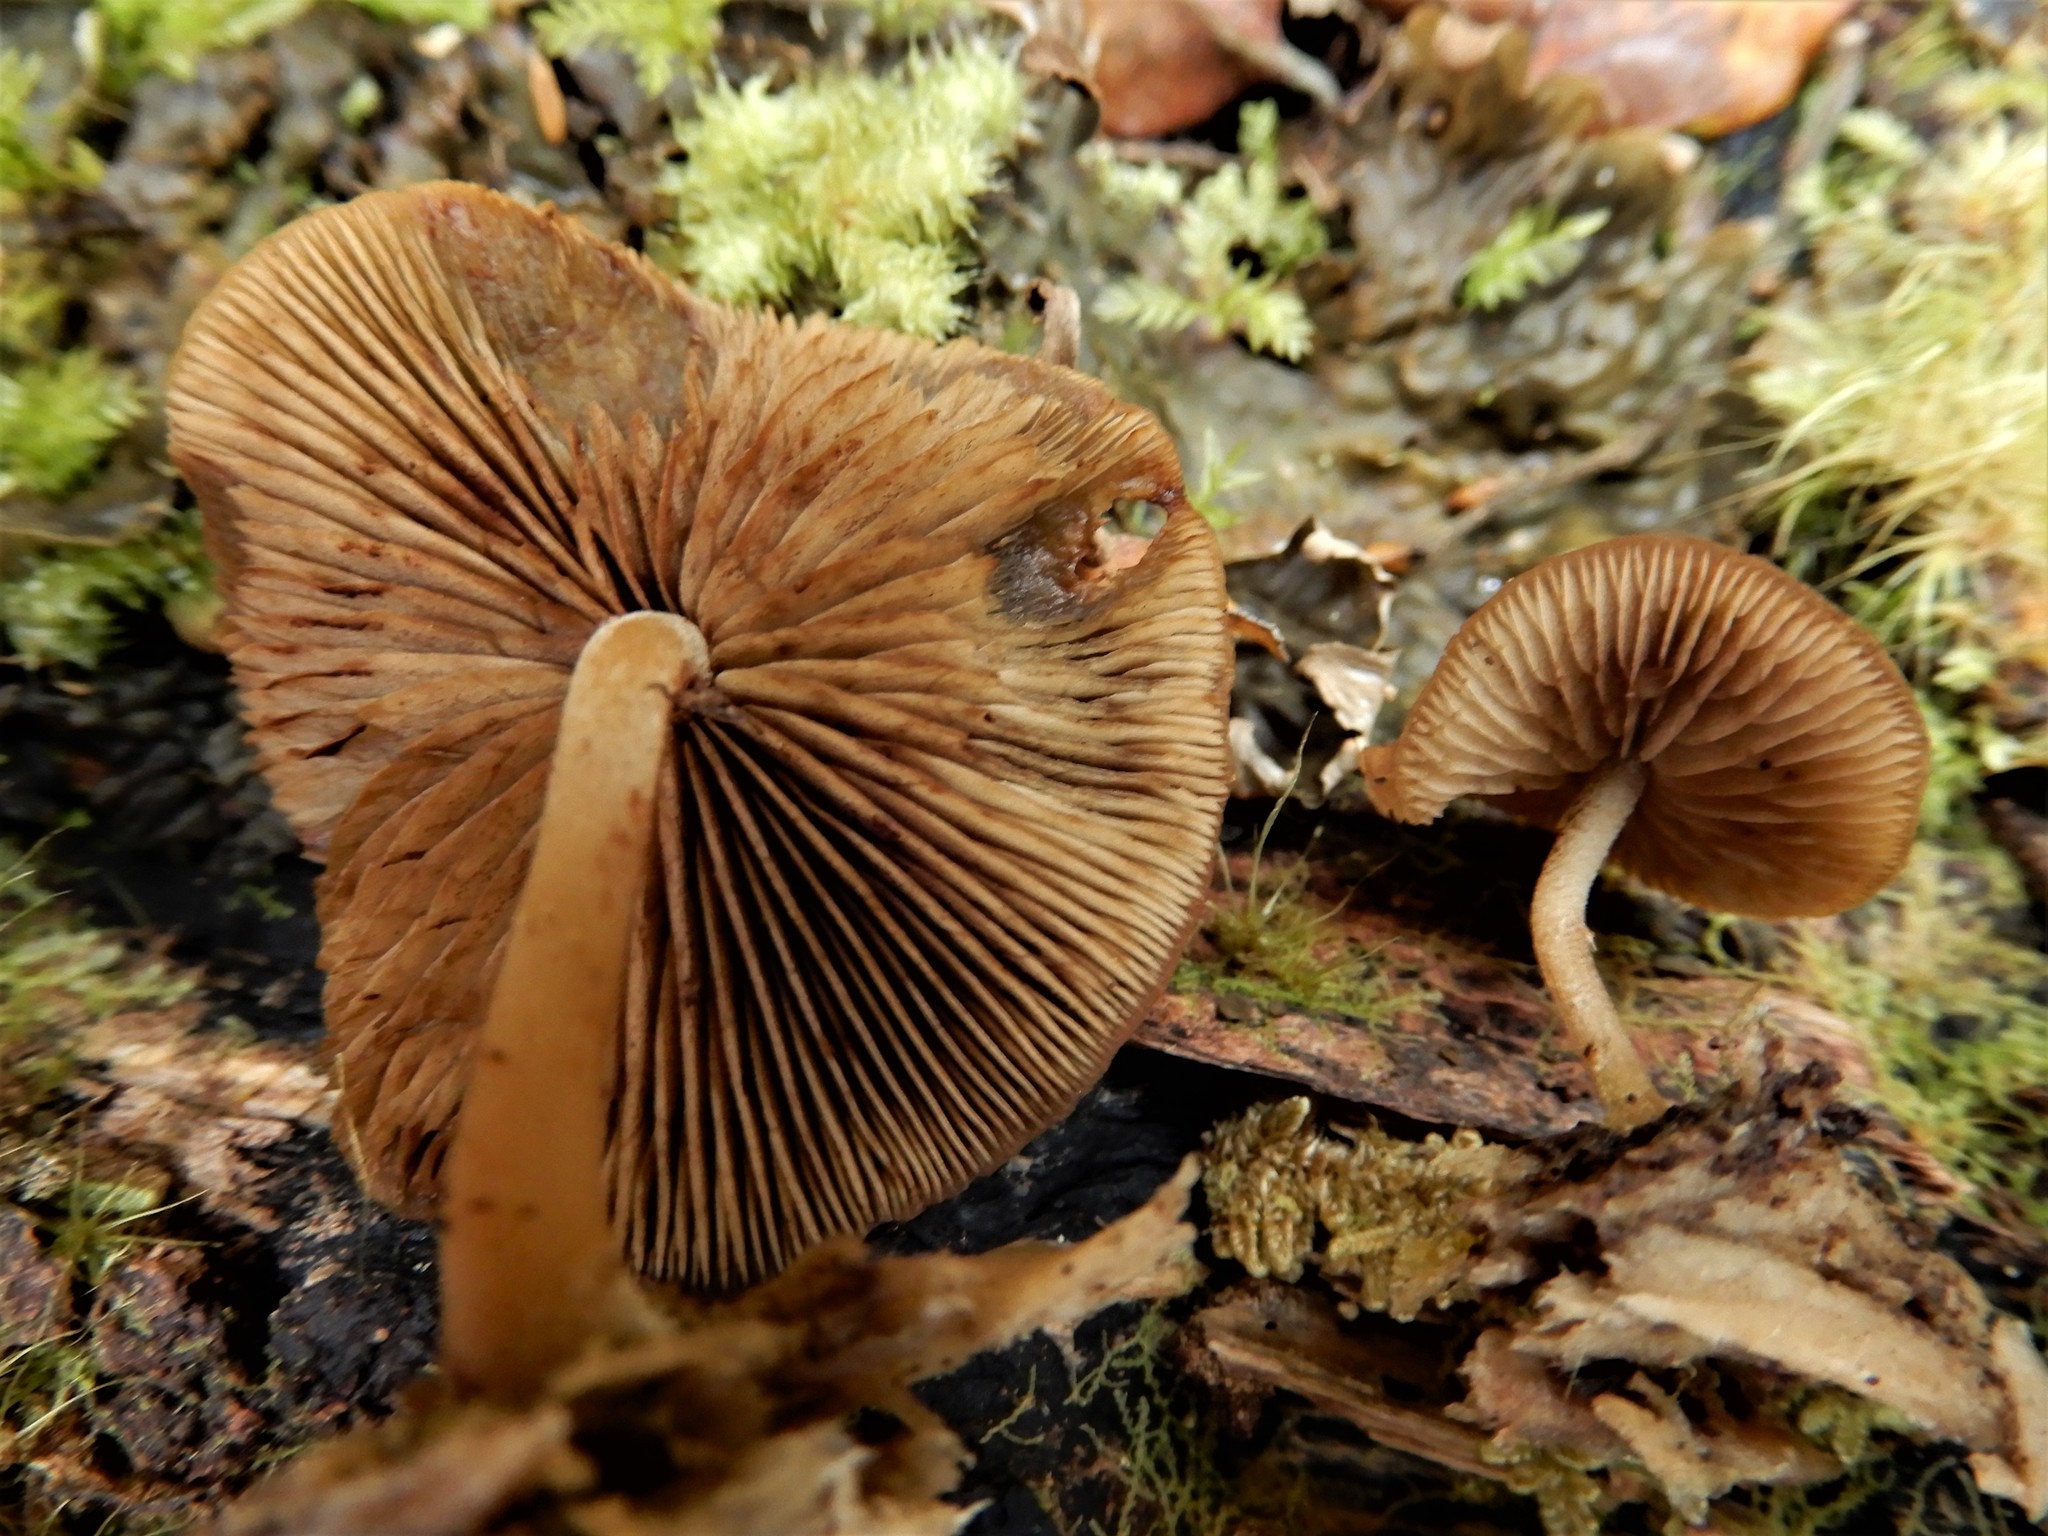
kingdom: Fungi
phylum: Basidiomycota
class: Agaricomycetes
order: Agaricales
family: Crepidotaceae
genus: Simocybe
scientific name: Simocybe phlebophora
